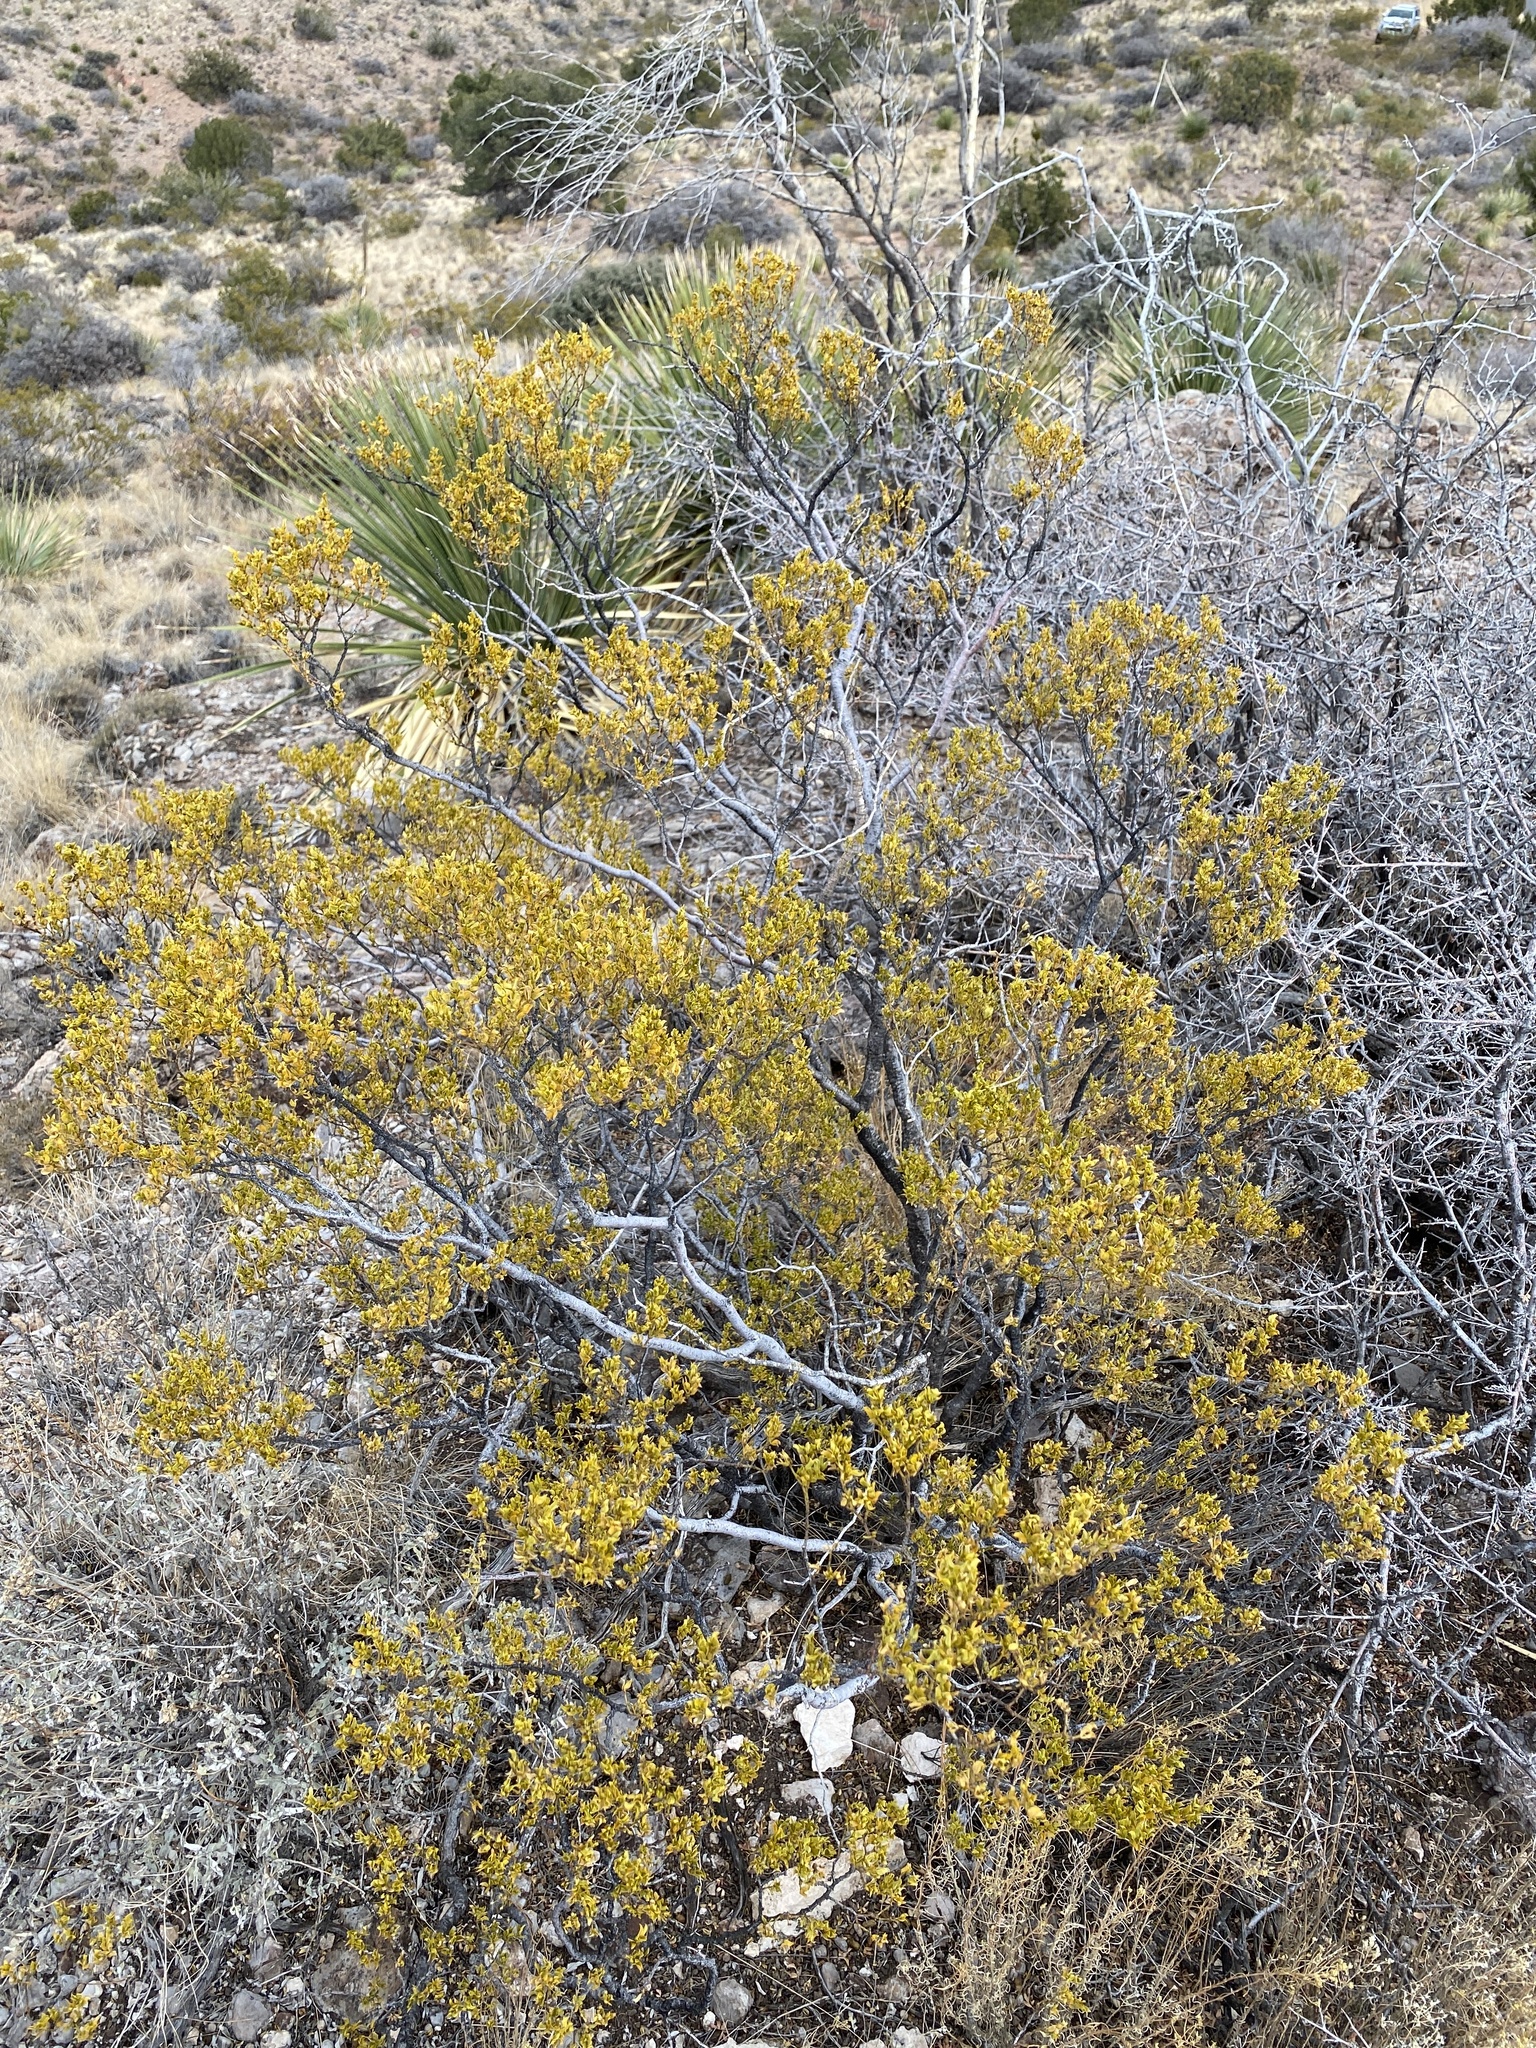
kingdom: Plantae
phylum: Tracheophyta
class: Magnoliopsida
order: Zygophyllales
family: Zygophyllaceae
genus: Larrea
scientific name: Larrea tridentata
